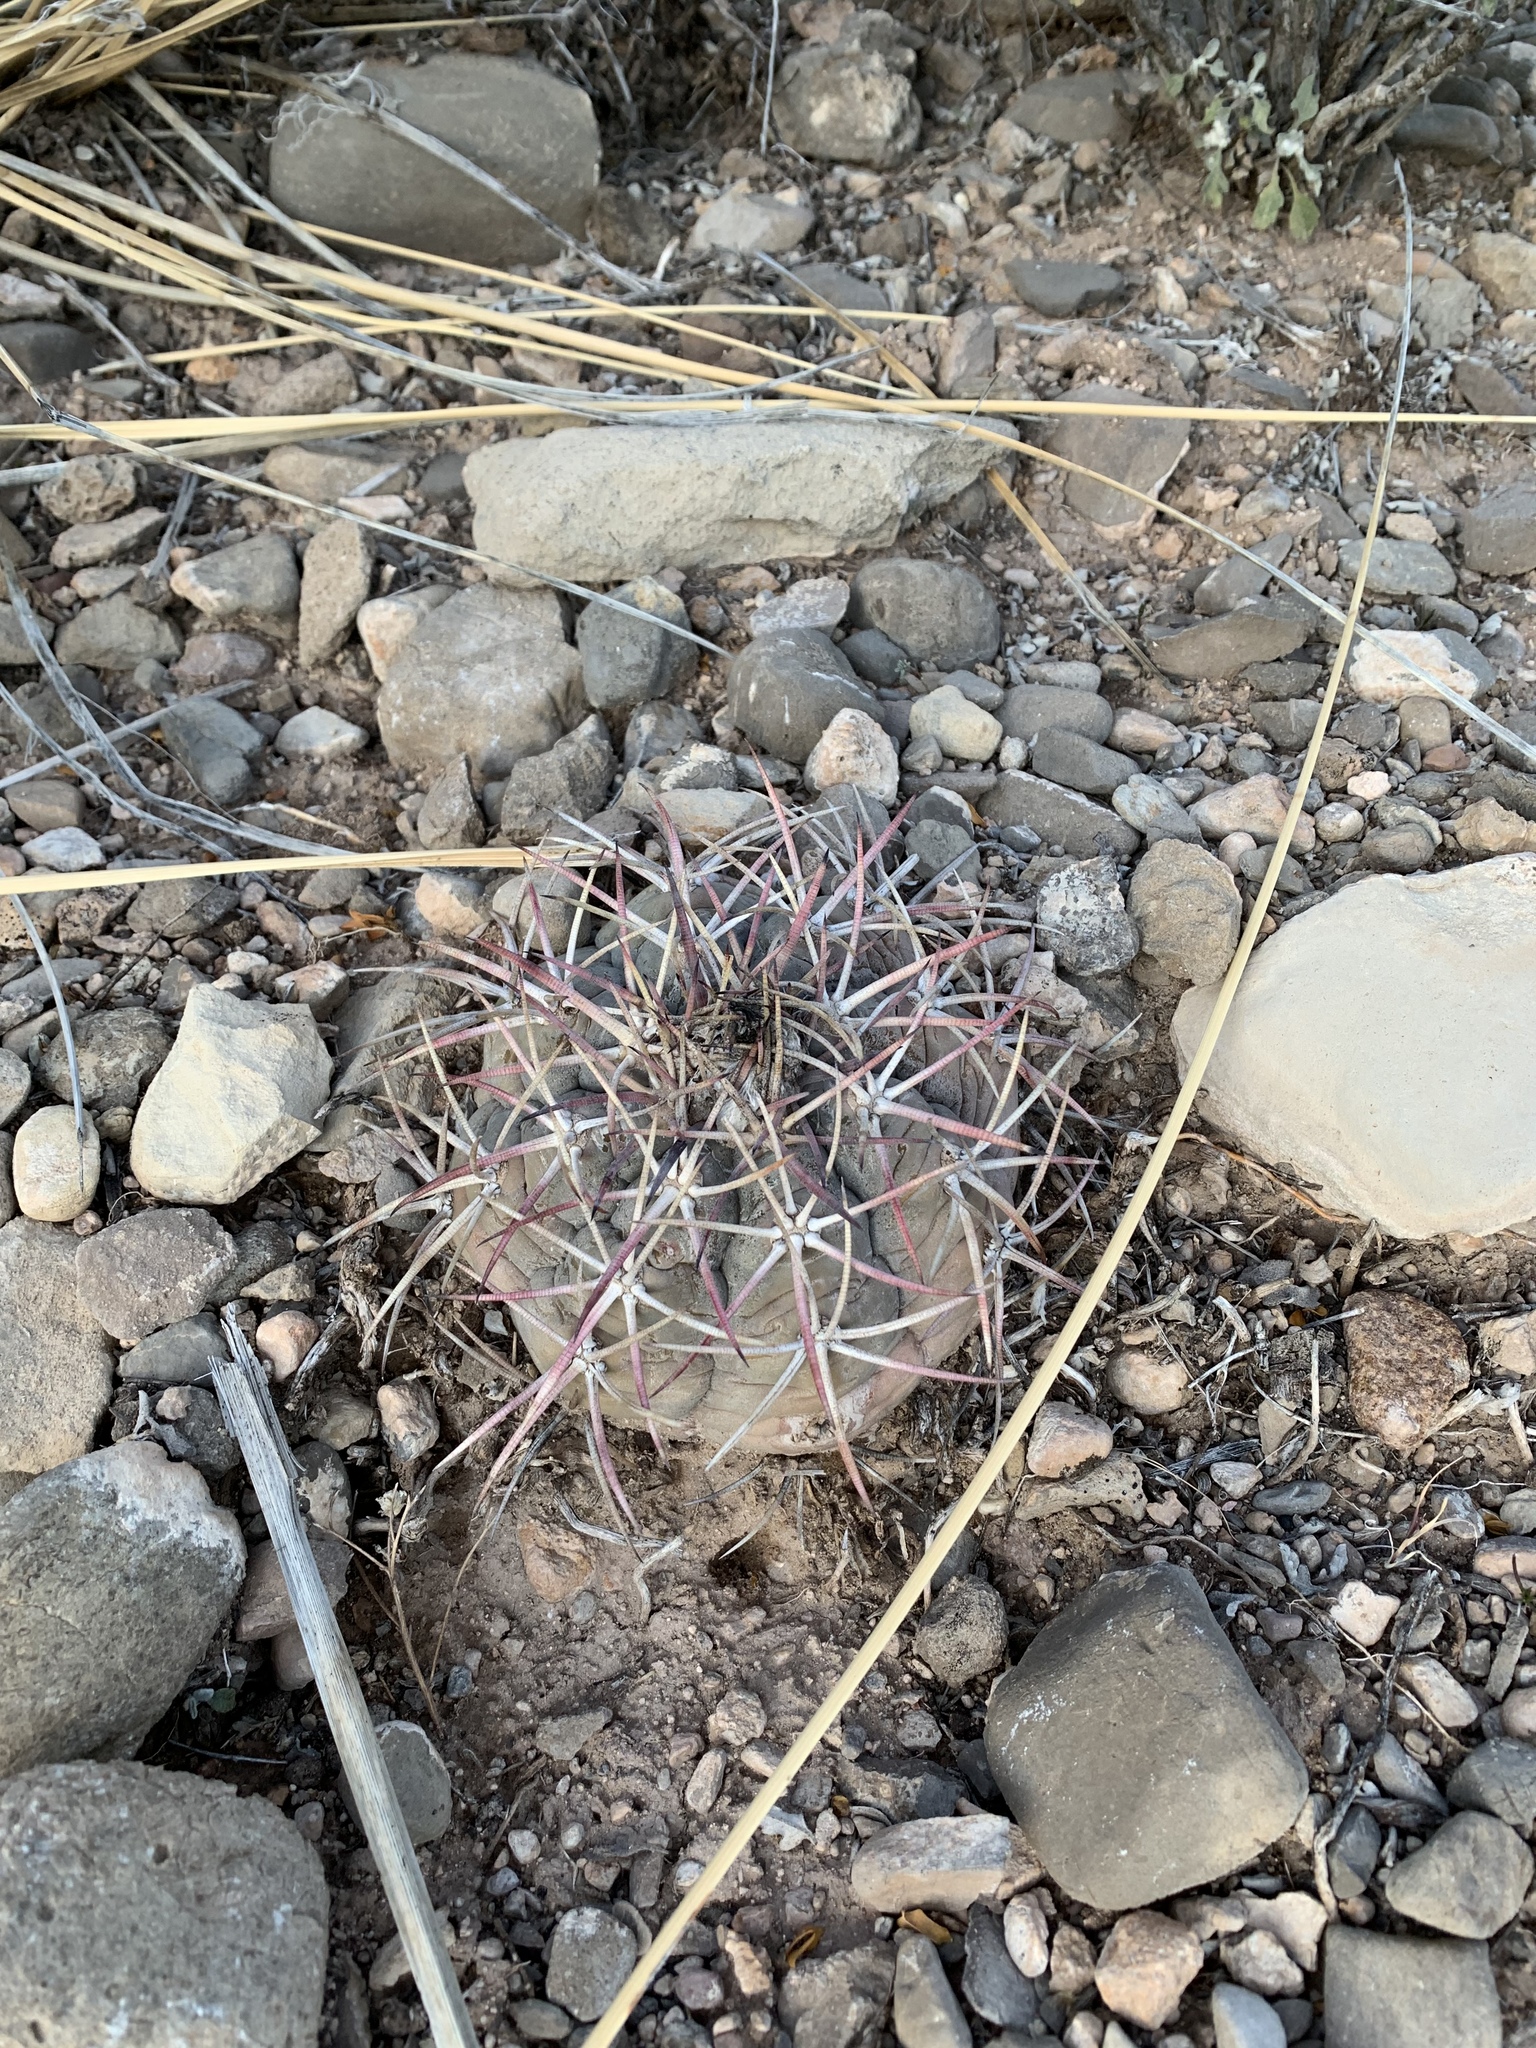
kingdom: Plantae
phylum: Tracheophyta
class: Magnoliopsida
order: Caryophyllales
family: Cactaceae
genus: Echinocactus
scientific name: Echinocactus horizonthalonius
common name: Devilshead
